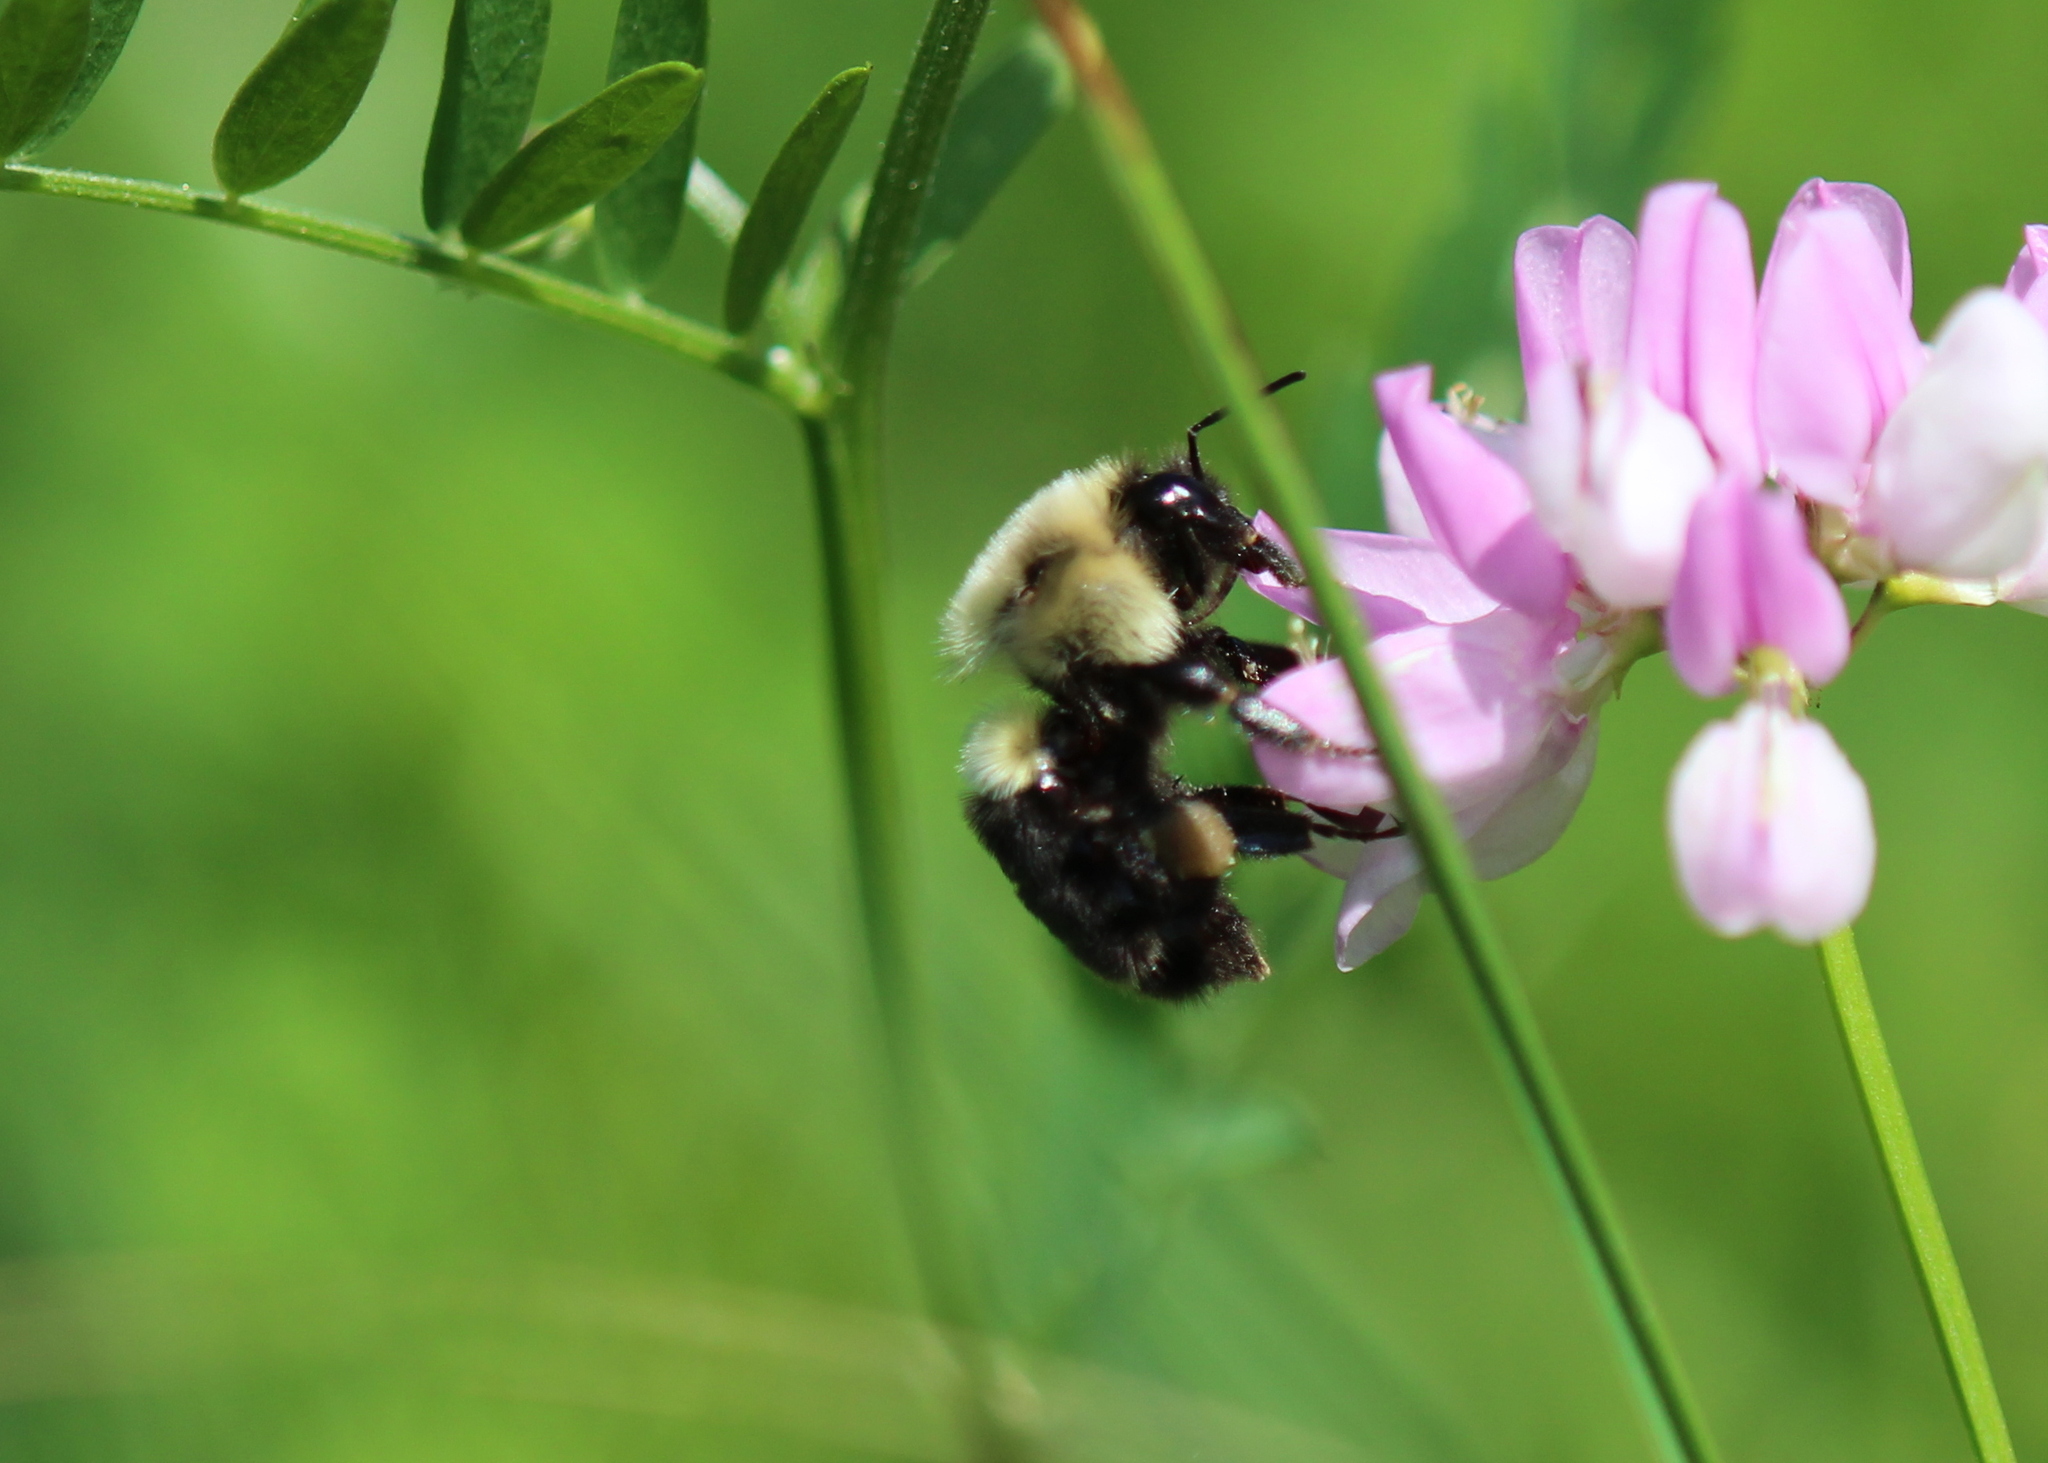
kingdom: Animalia
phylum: Arthropoda
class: Insecta
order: Hymenoptera
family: Apidae
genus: Bombus
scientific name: Bombus impatiens
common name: Common eastern bumble bee
